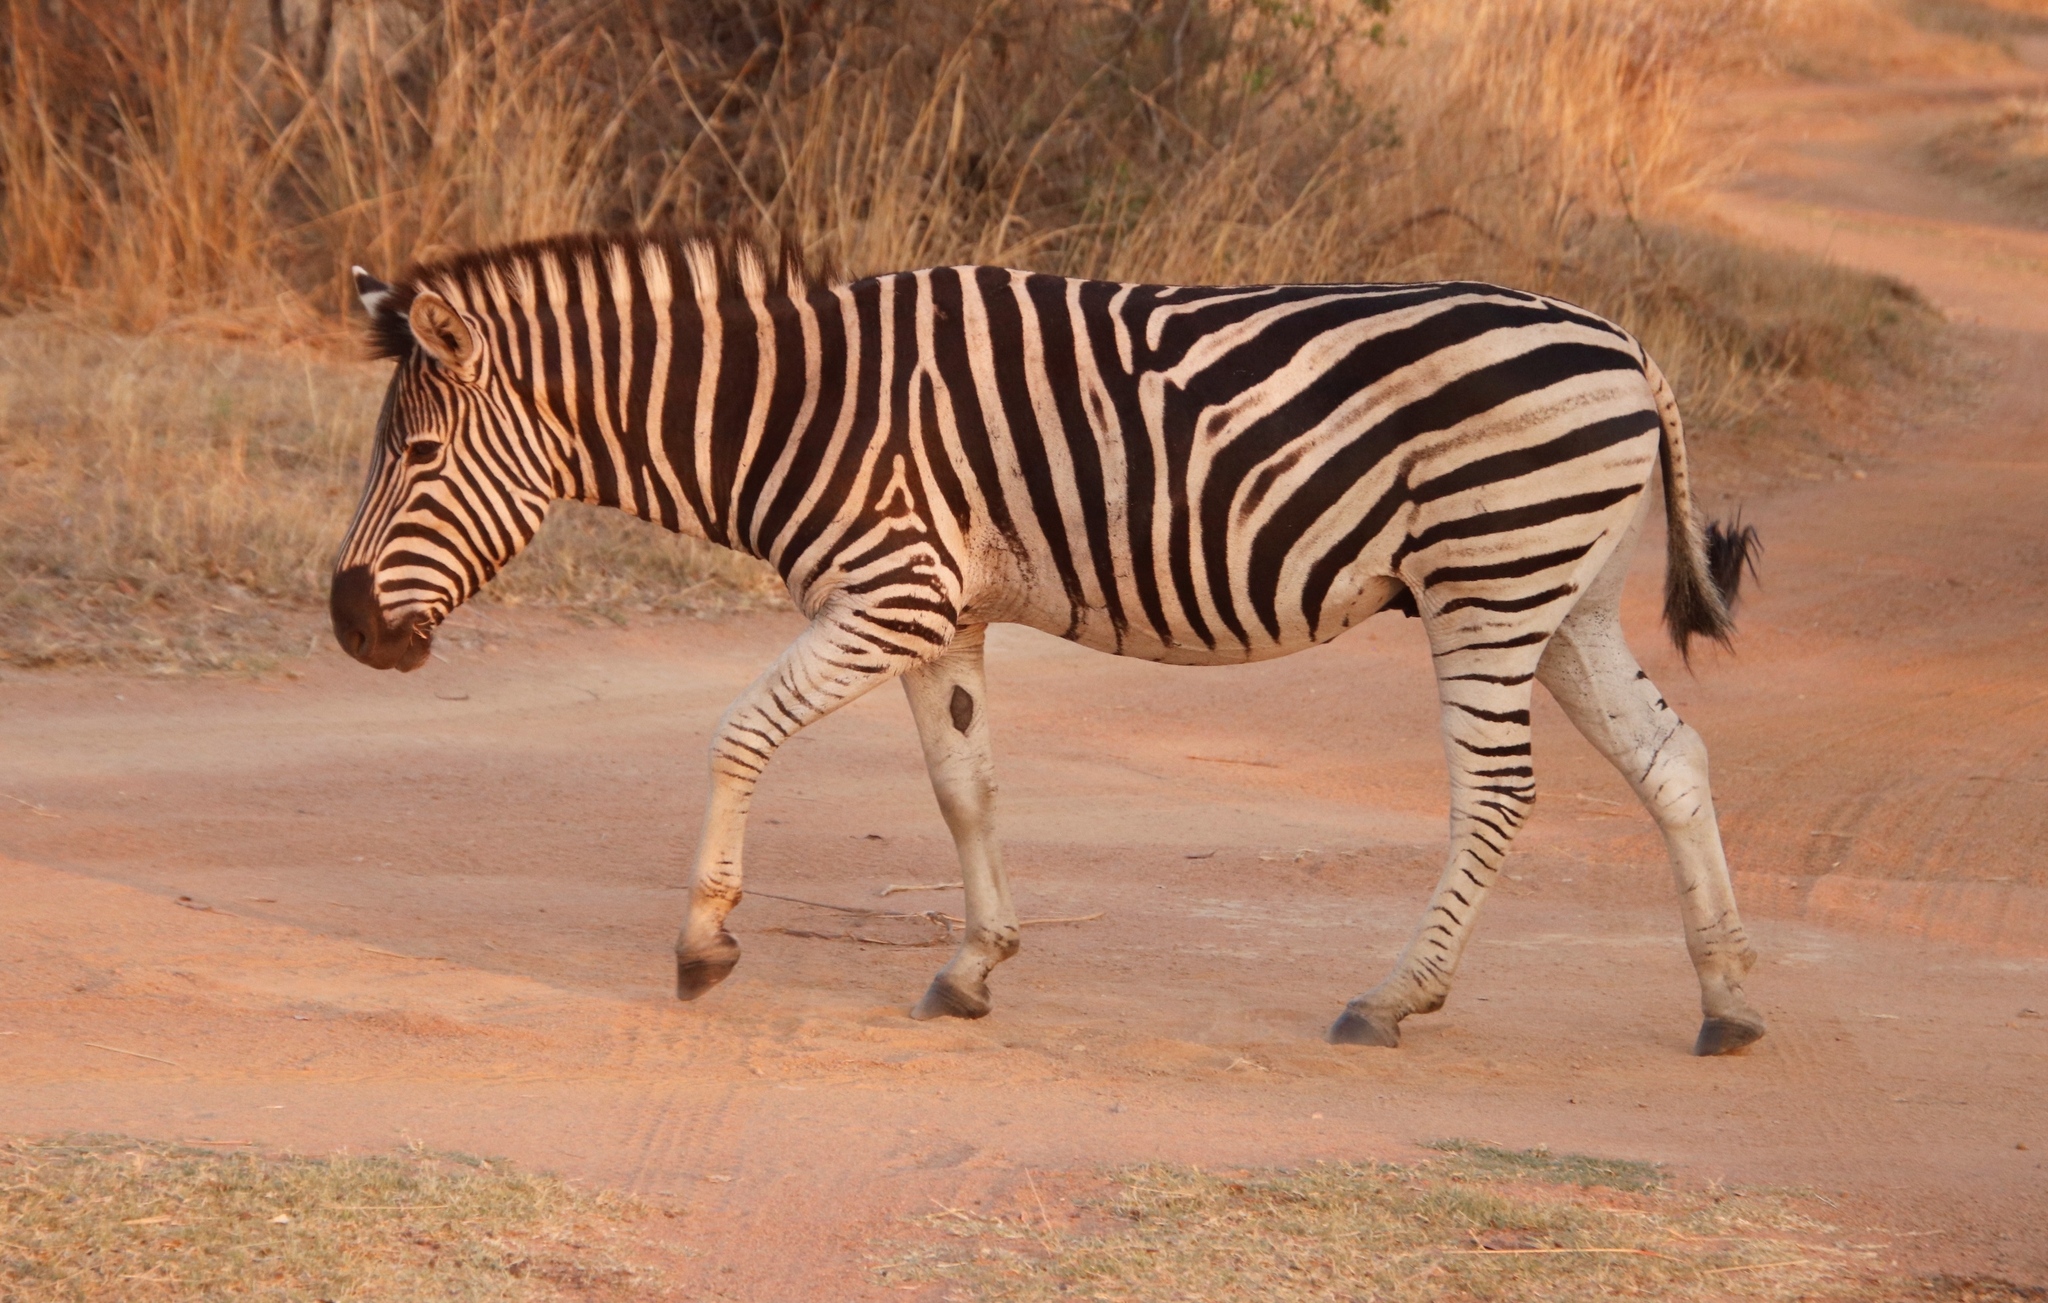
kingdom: Animalia
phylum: Chordata
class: Mammalia
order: Perissodactyla
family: Equidae
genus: Equus
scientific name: Equus quagga
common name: Plains zebra
